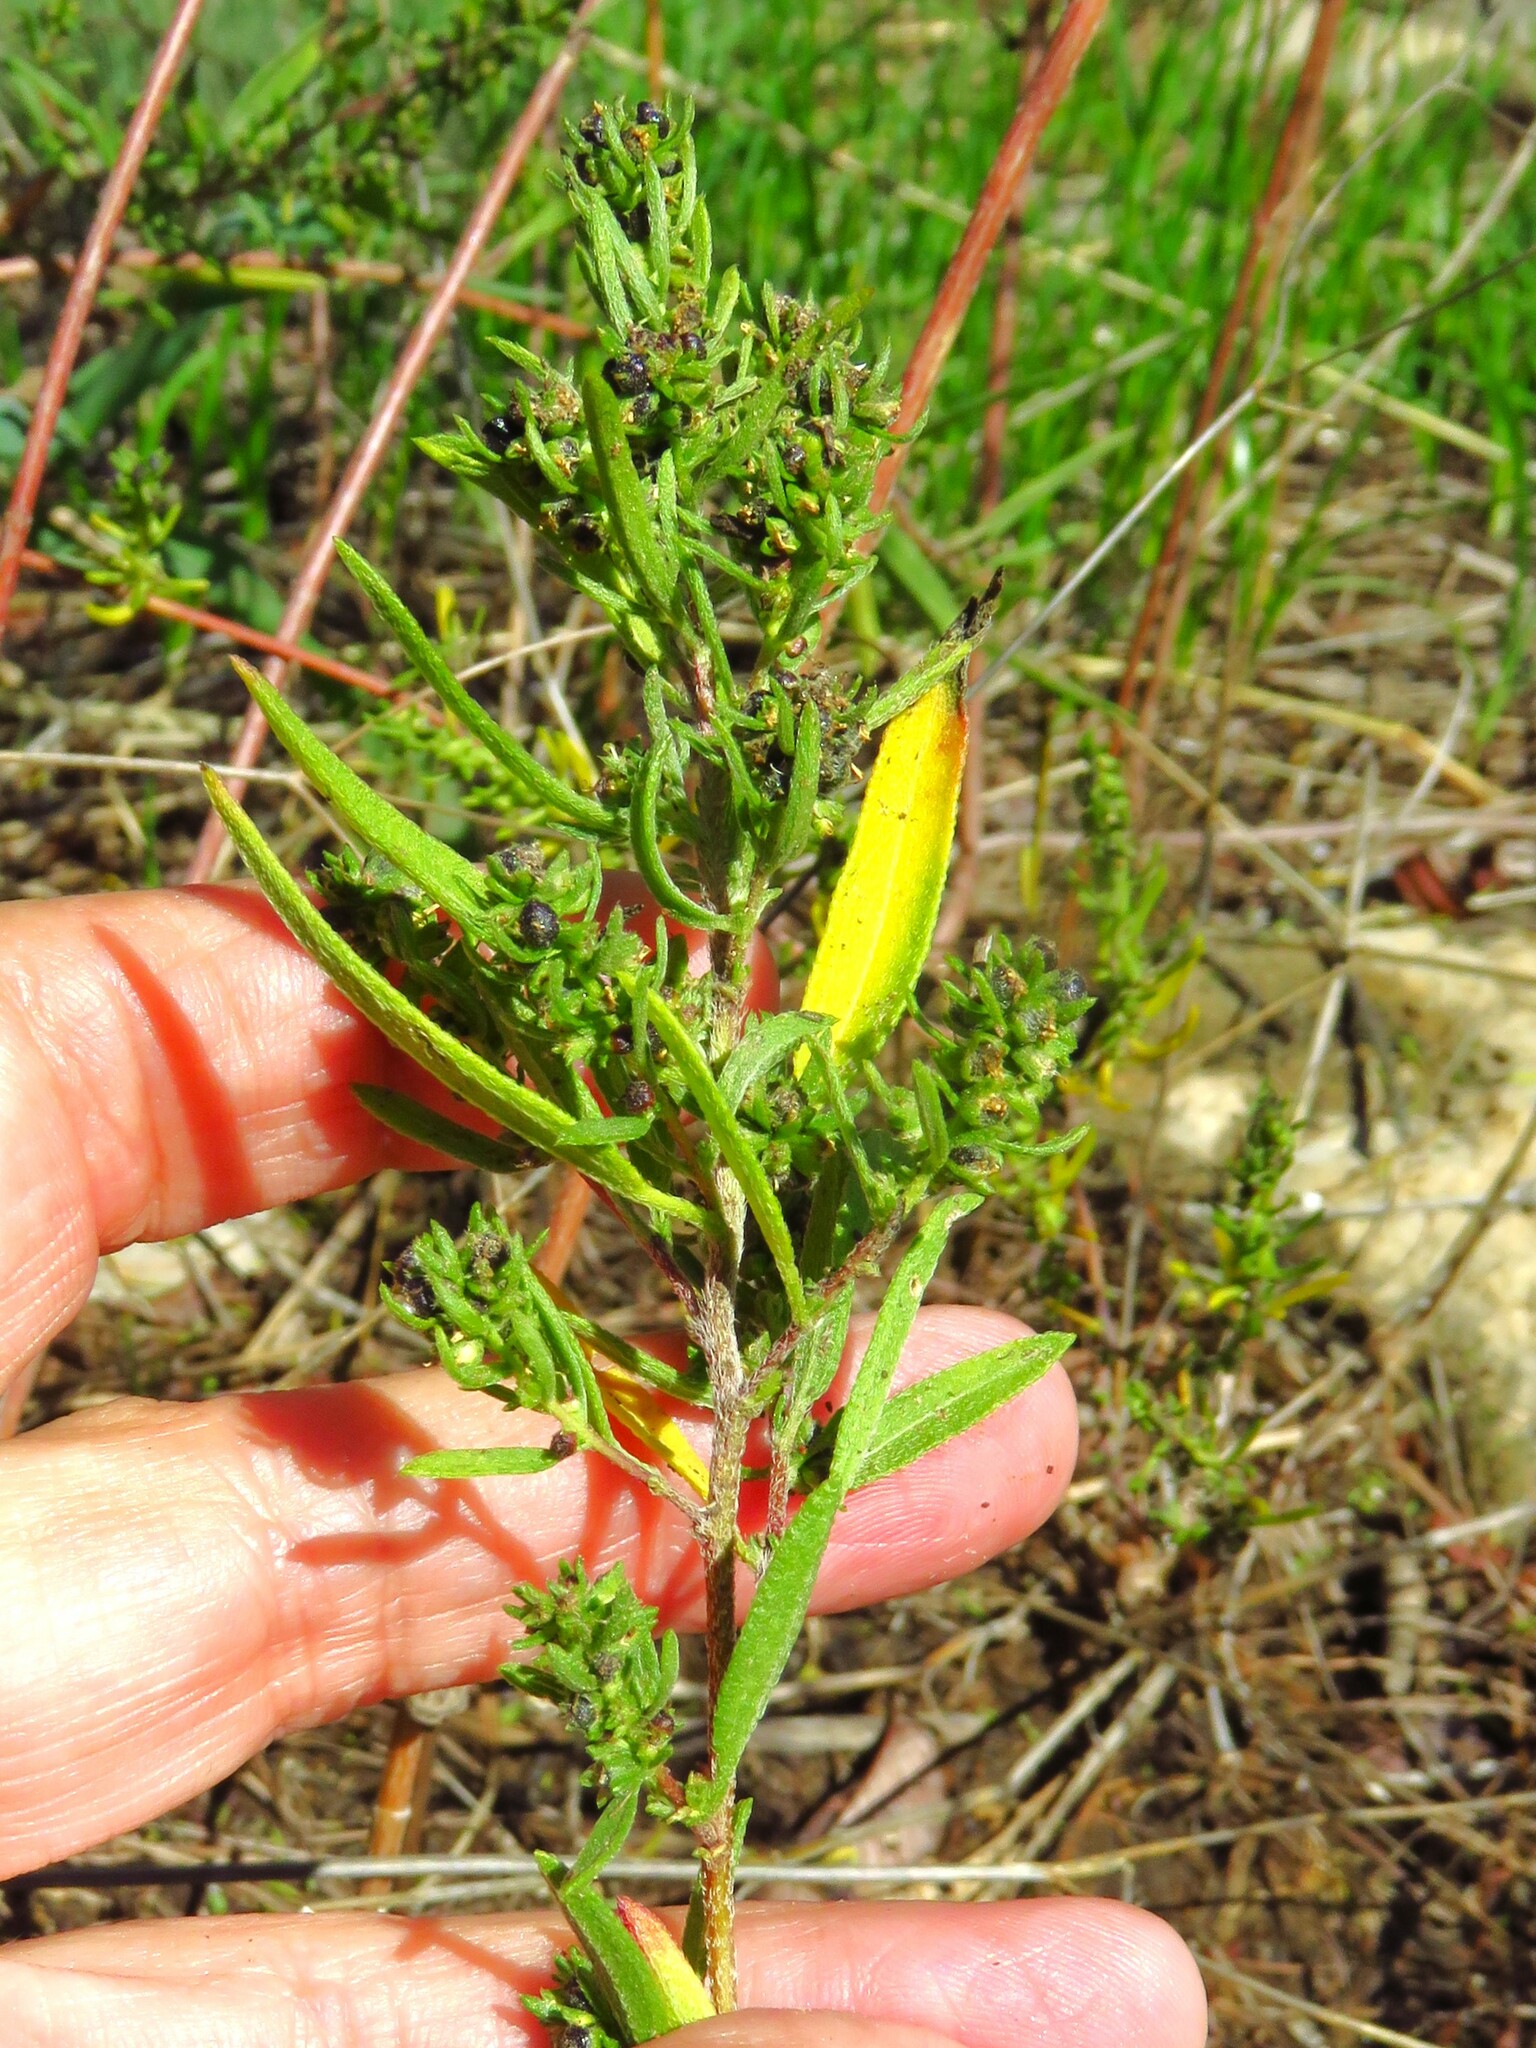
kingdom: Plantae
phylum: Tracheophyta
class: Magnoliopsida
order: Asterales
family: Asteraceae
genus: Iva
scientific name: Iva asperifolia
